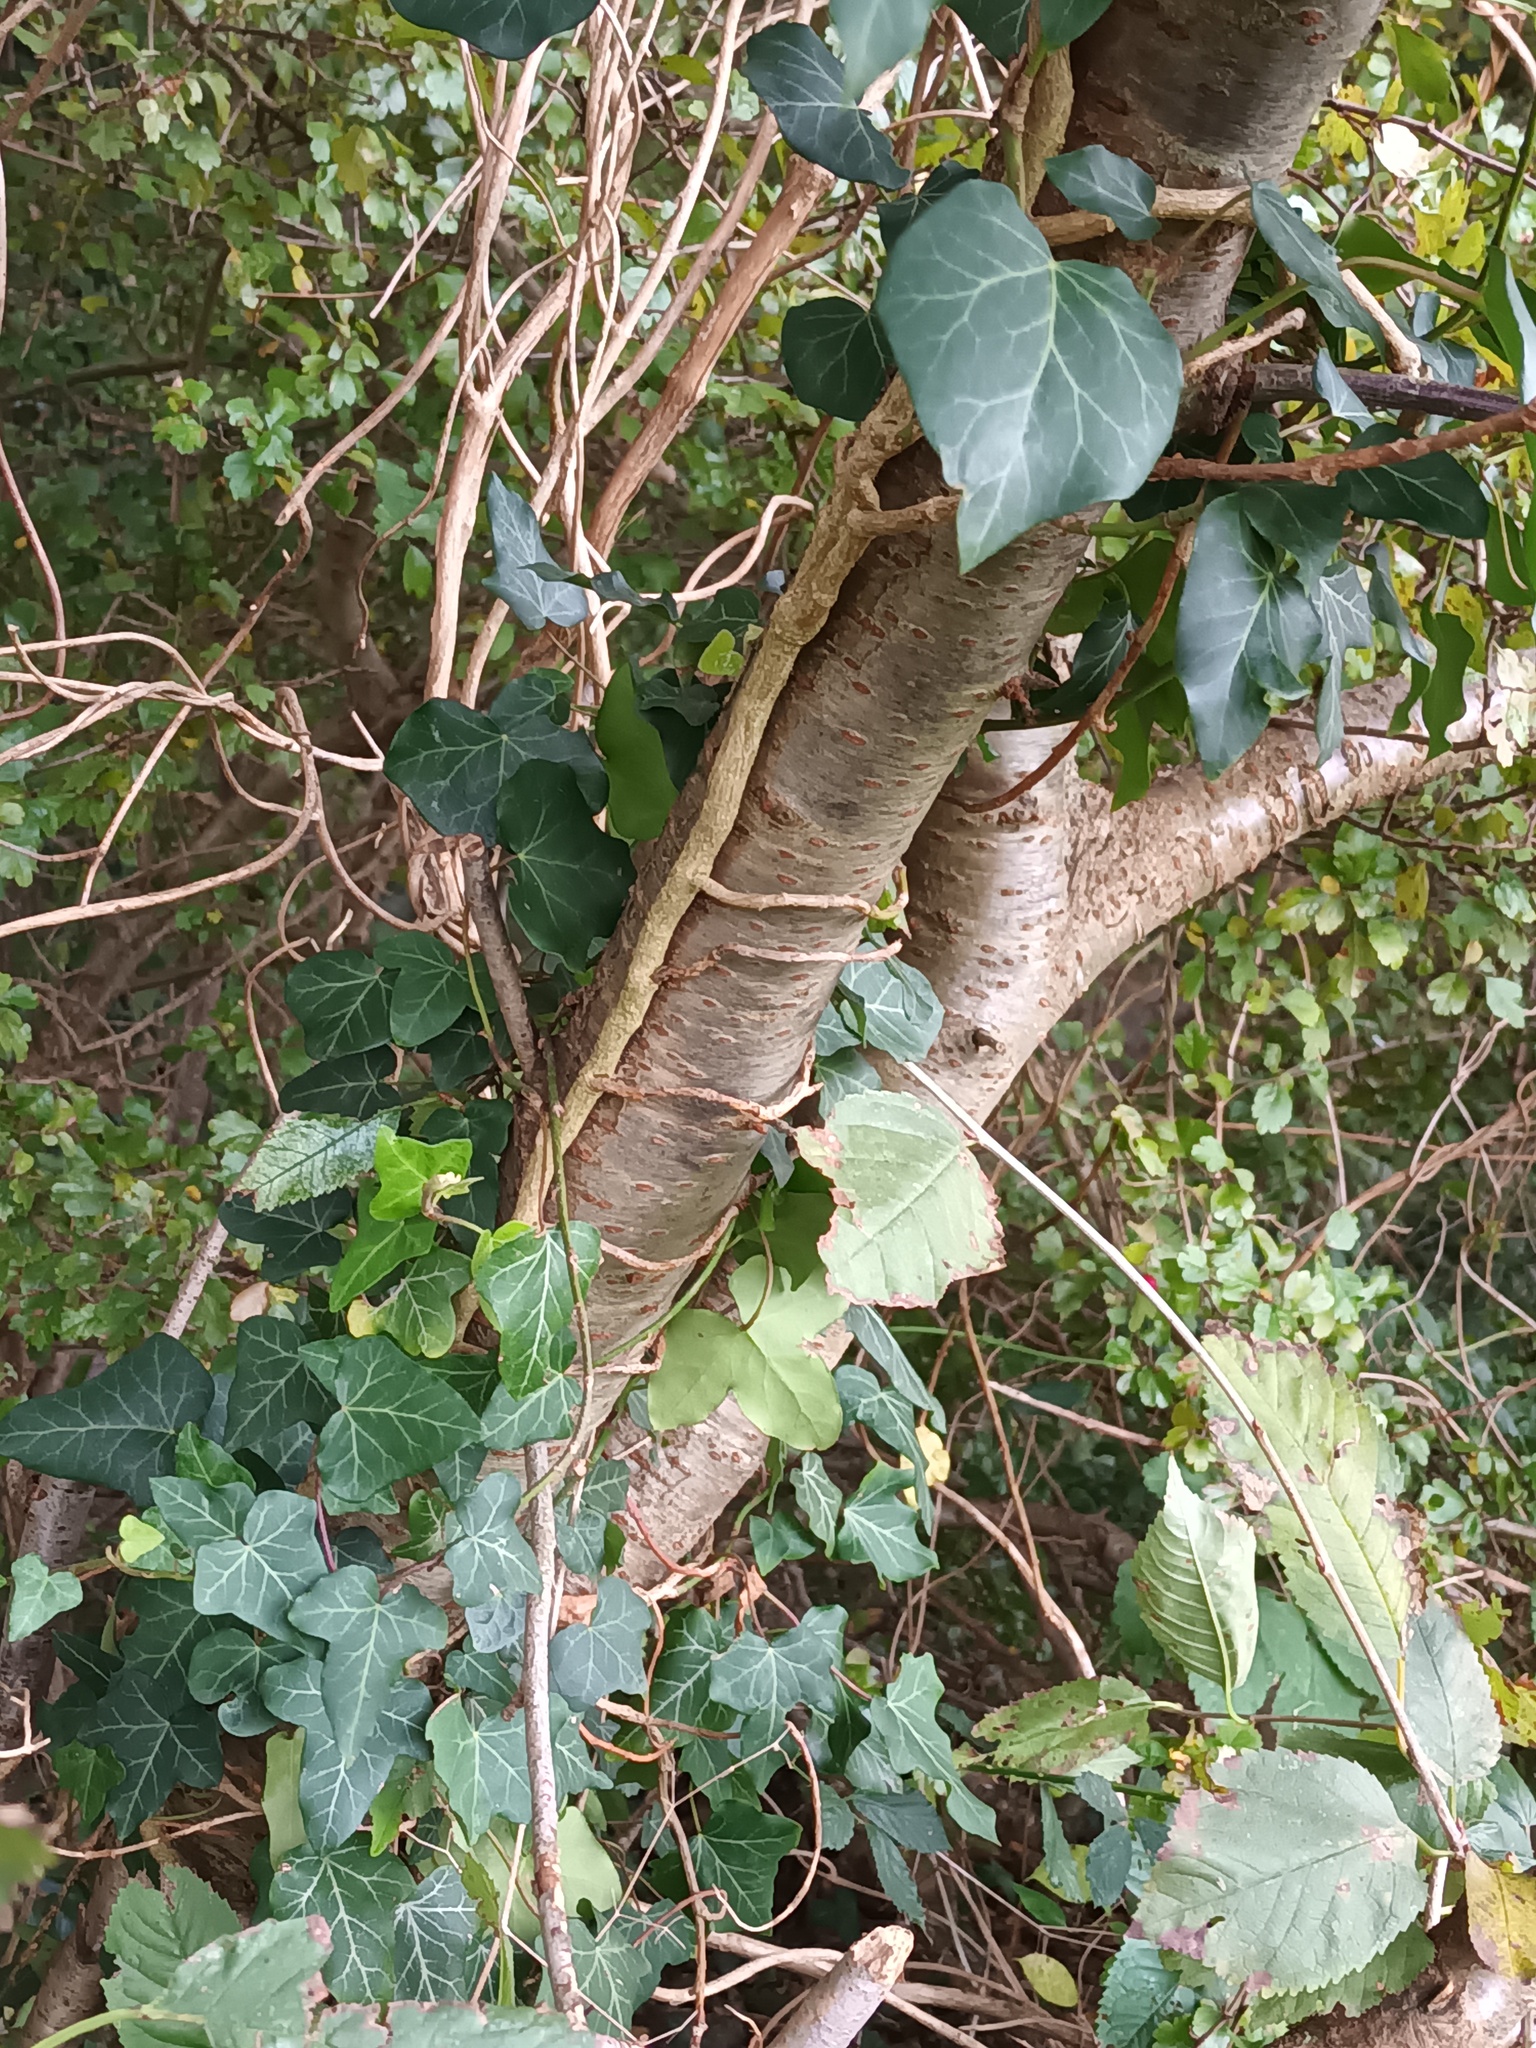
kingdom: Plantae
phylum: Tracheophyta
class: Magnoliopsida
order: Rosales
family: Rosaceae
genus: Prunus
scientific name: Prunus avium
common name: Sweet cherry
